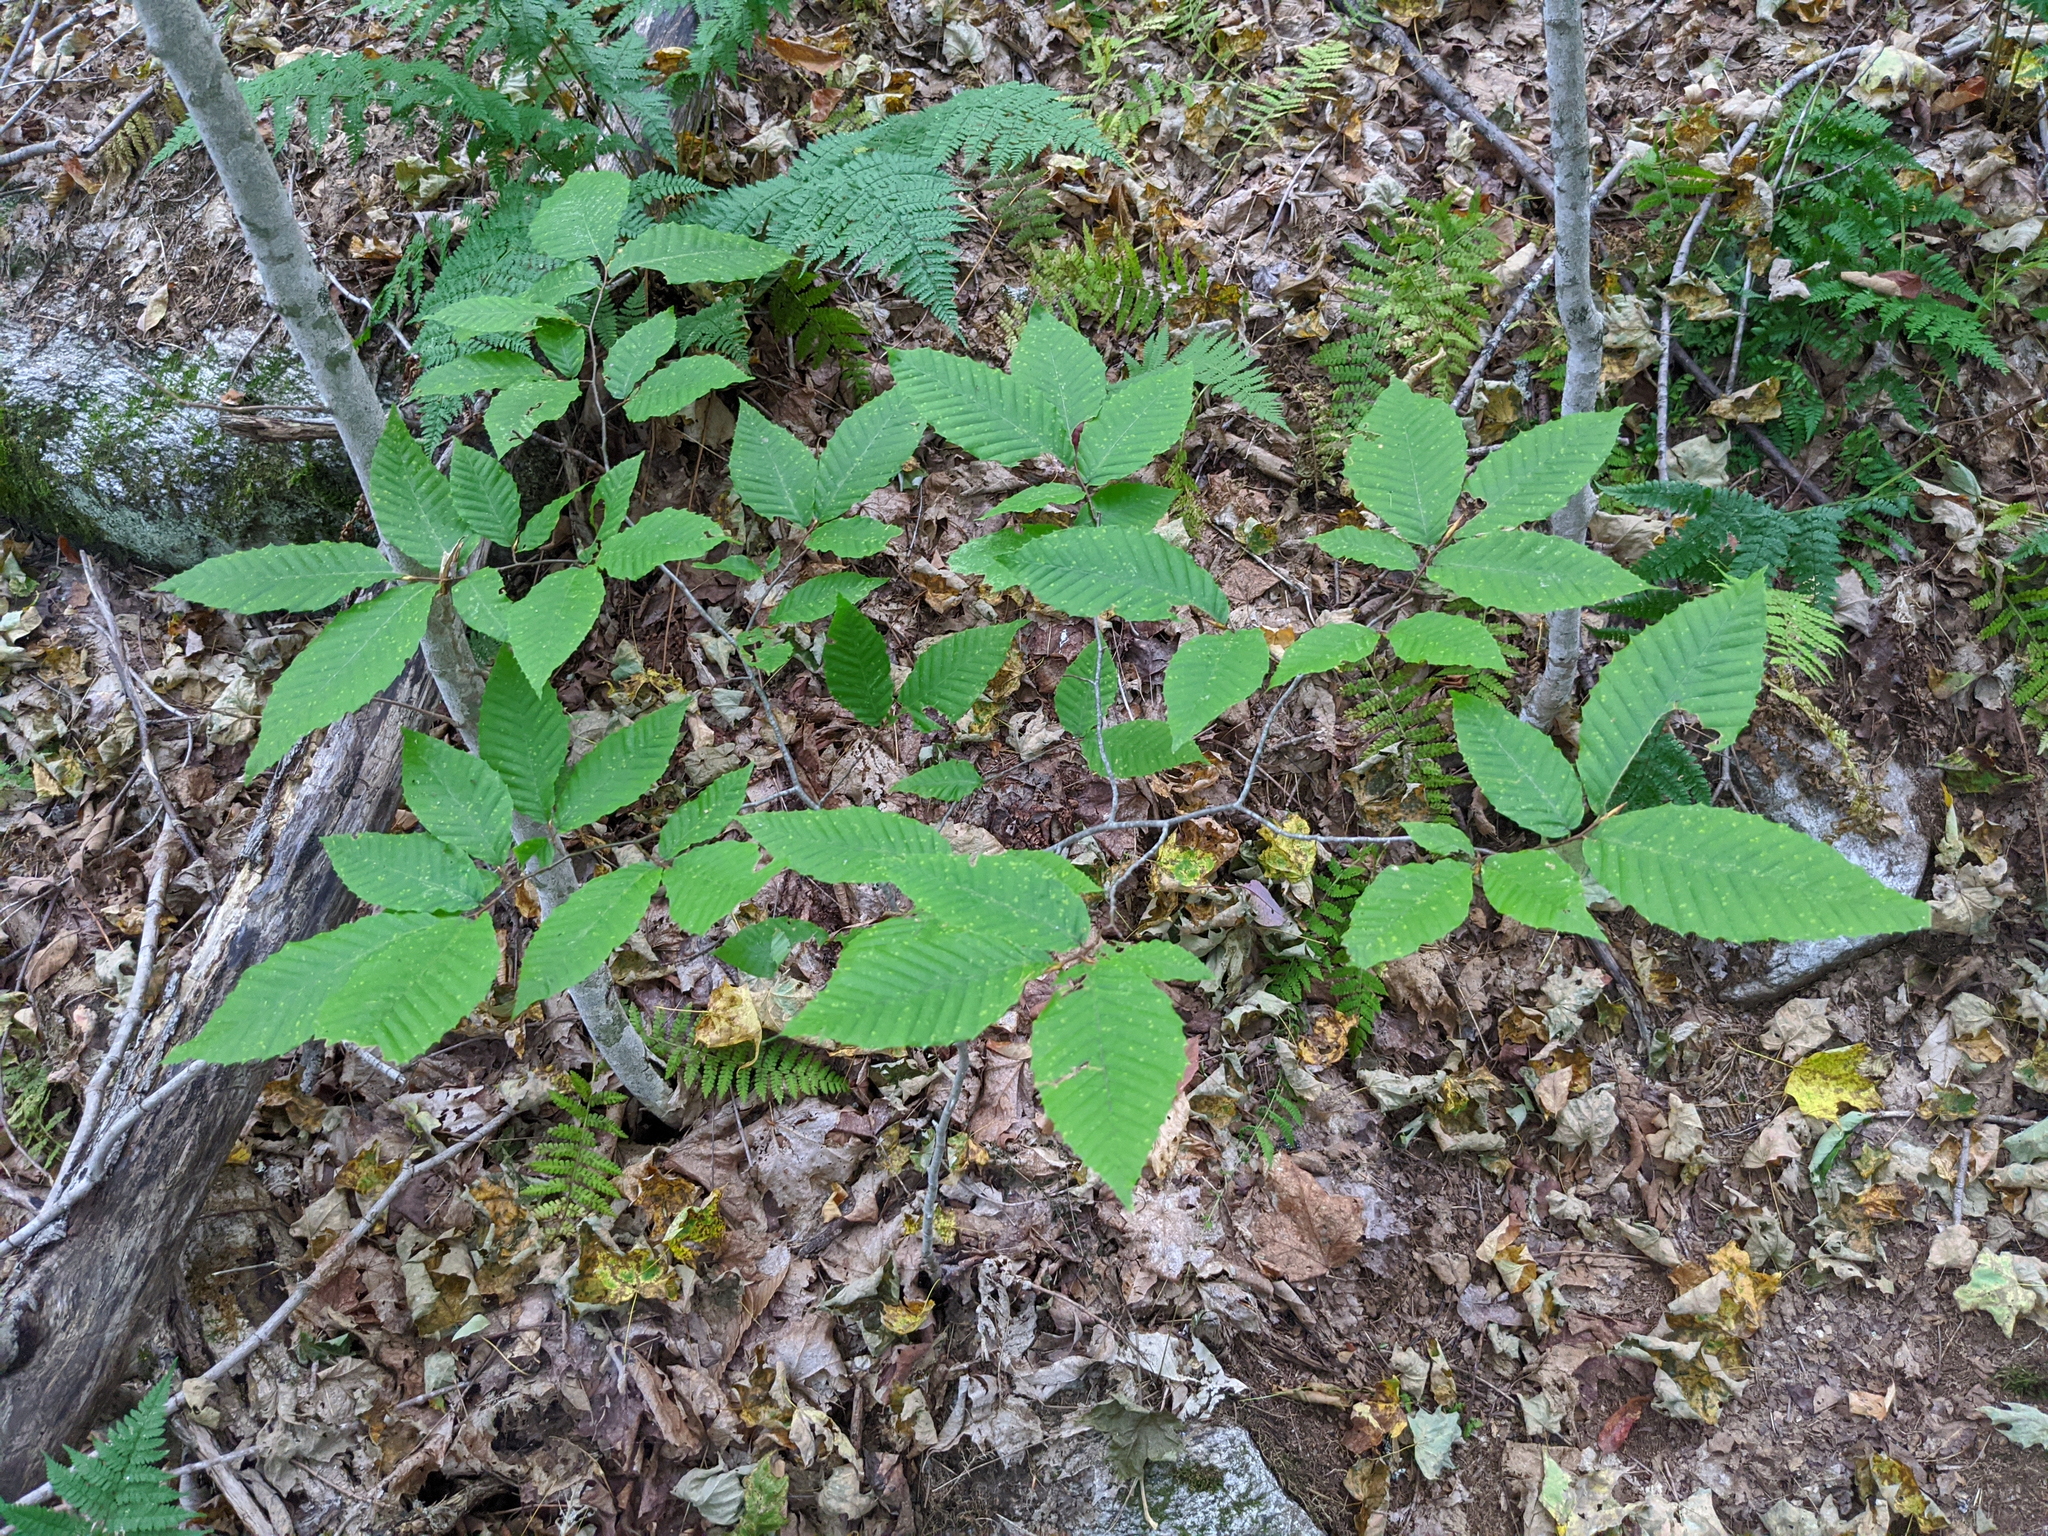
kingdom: Plantae
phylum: Tracheophyta
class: Magnoliopsida
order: Fagales
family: Fagaceae
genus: Fagus
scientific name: Fagus grandifolia
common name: American beech
